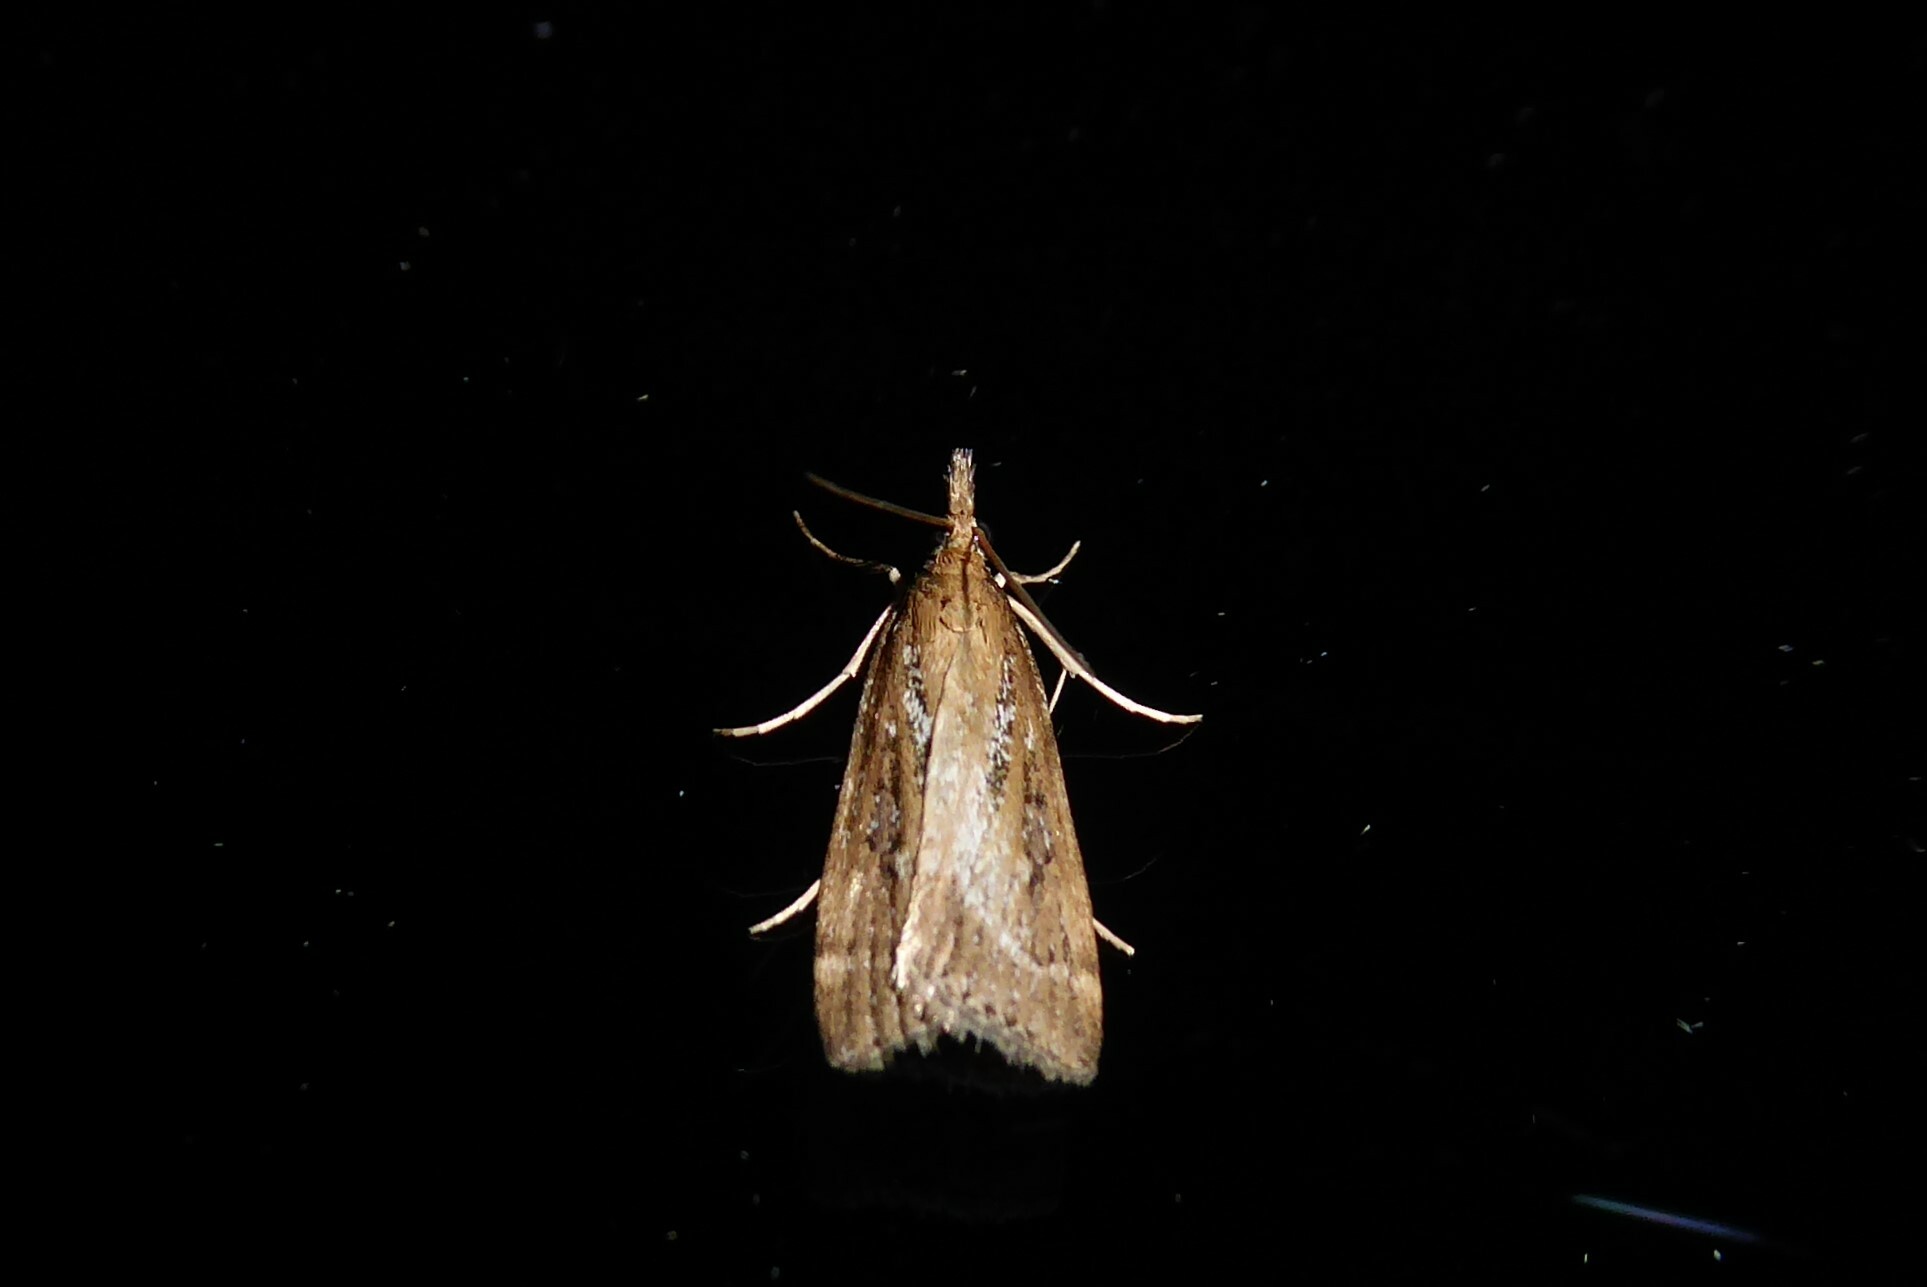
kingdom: Animalia
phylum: Arthropoda
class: Insecta
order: Lepidoptera
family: Crambidae
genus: Eudonia
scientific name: Eudonia octophora
